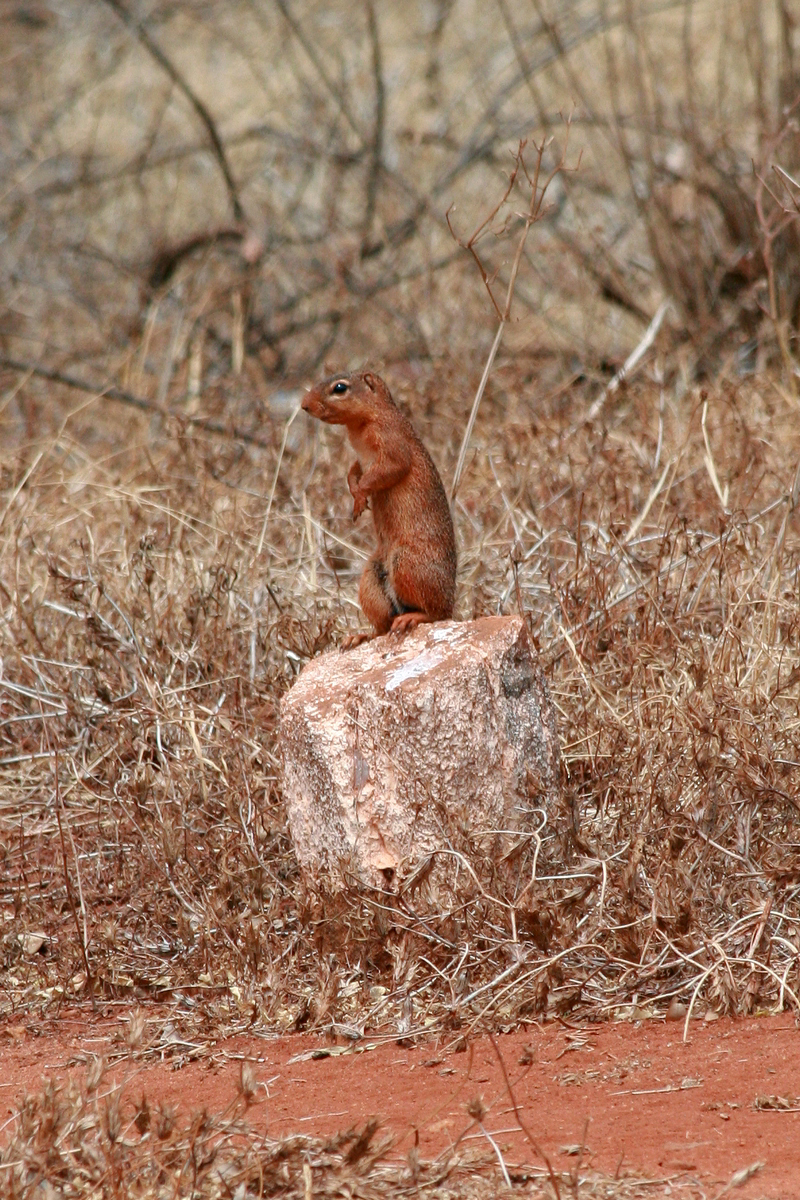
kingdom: Animalia
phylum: Chordata
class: Mammalia
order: Rodentia
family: Sciuridae
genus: Xerus
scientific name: Xerus rutilus
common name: Unstriped ground squirrel
